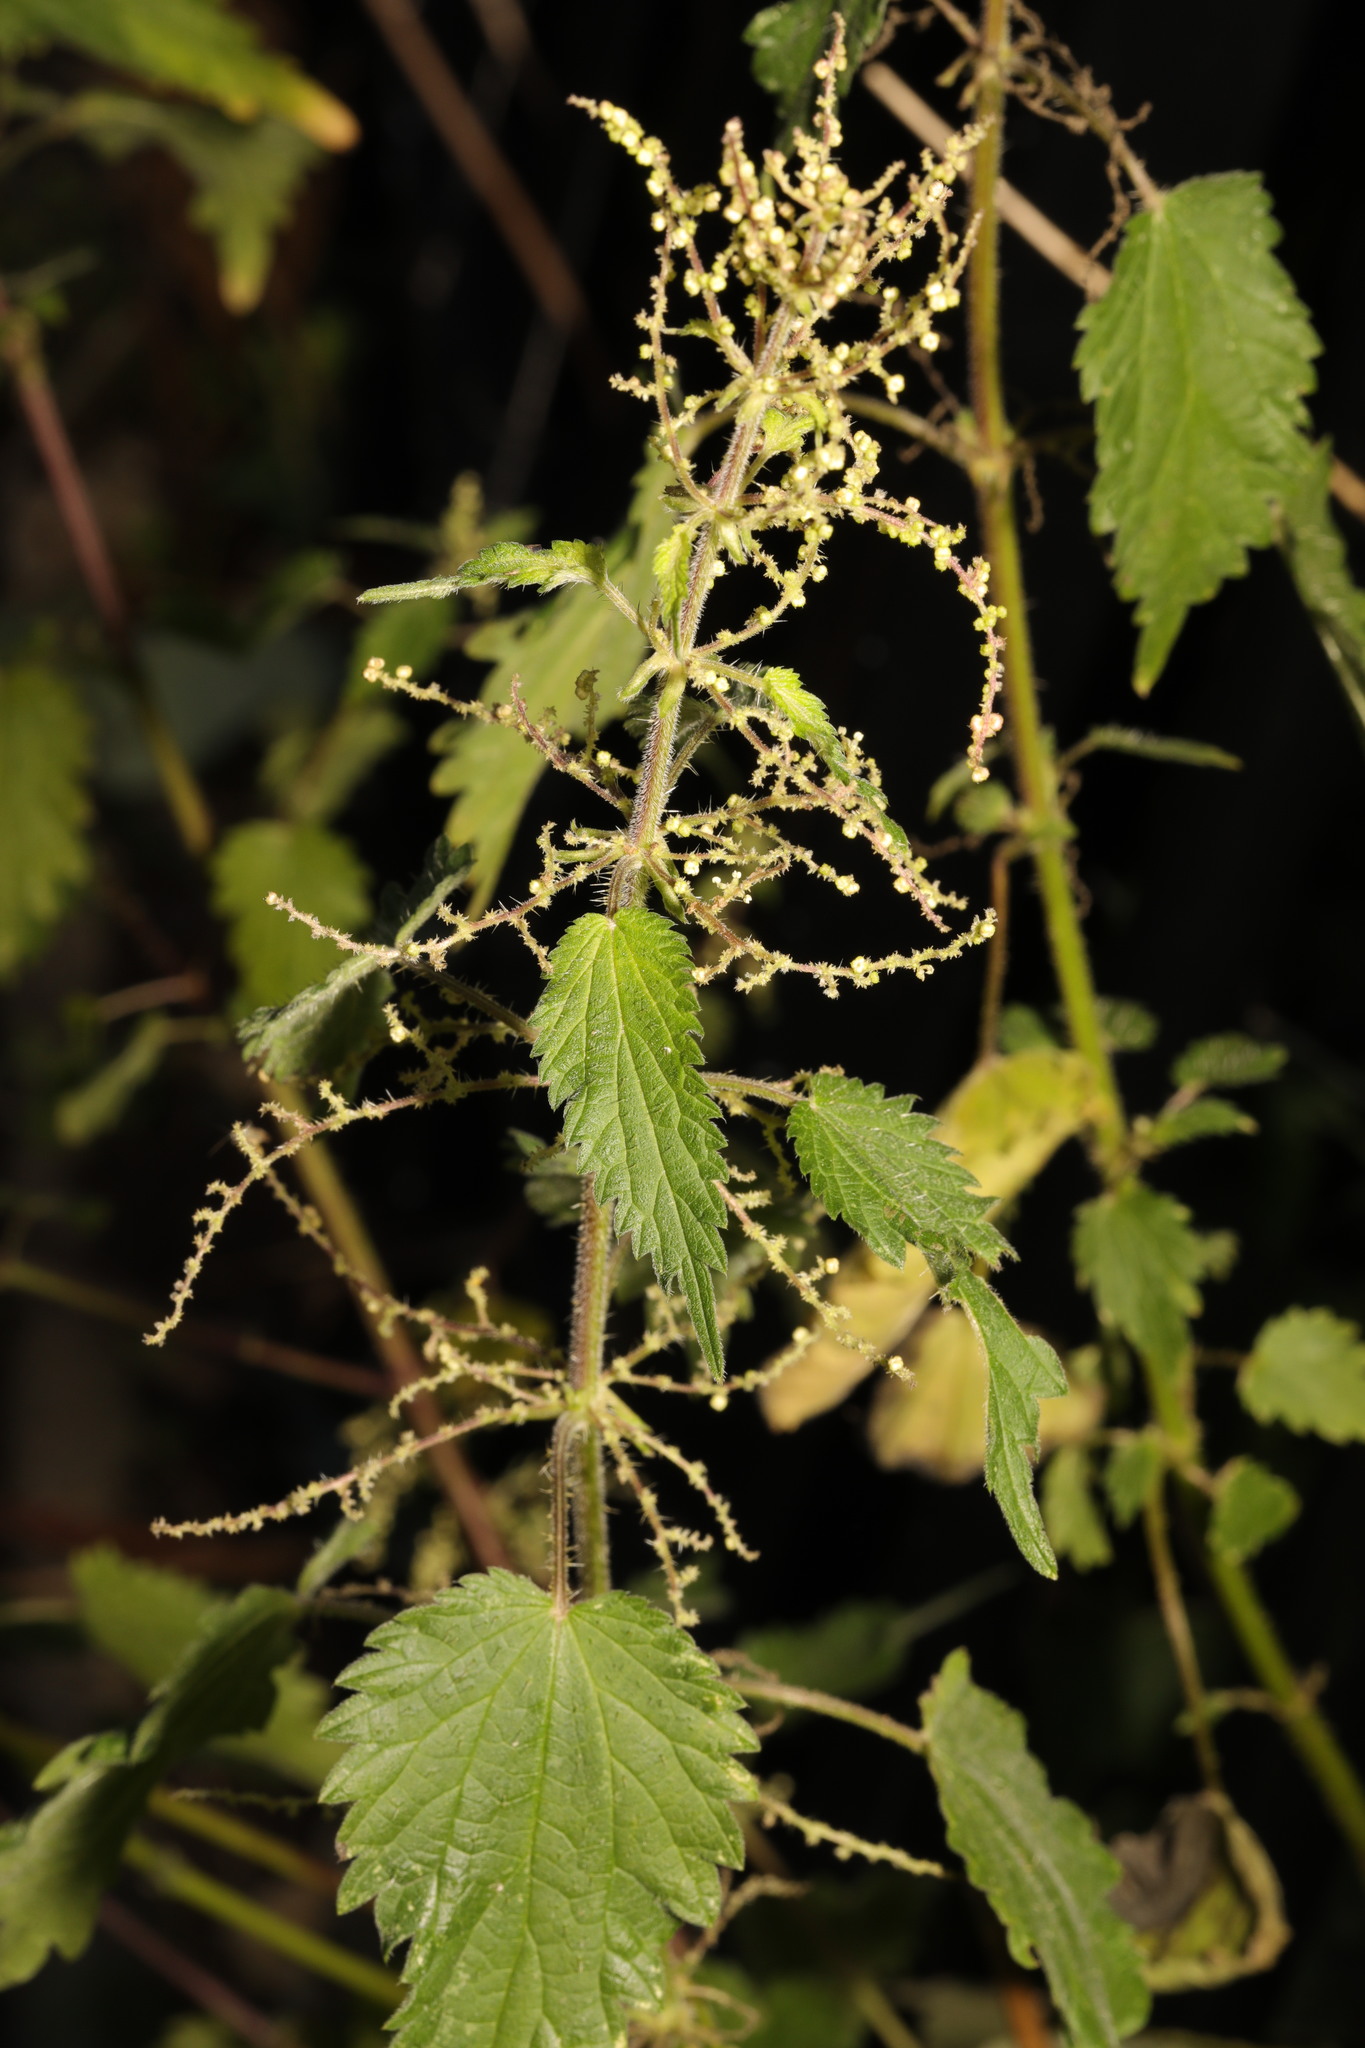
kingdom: Plantae
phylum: Tracheophyta
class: Magnoliopsida
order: Rosales
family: Urticaceae
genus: Urtica
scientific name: Urtica dioica
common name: Common nettle
